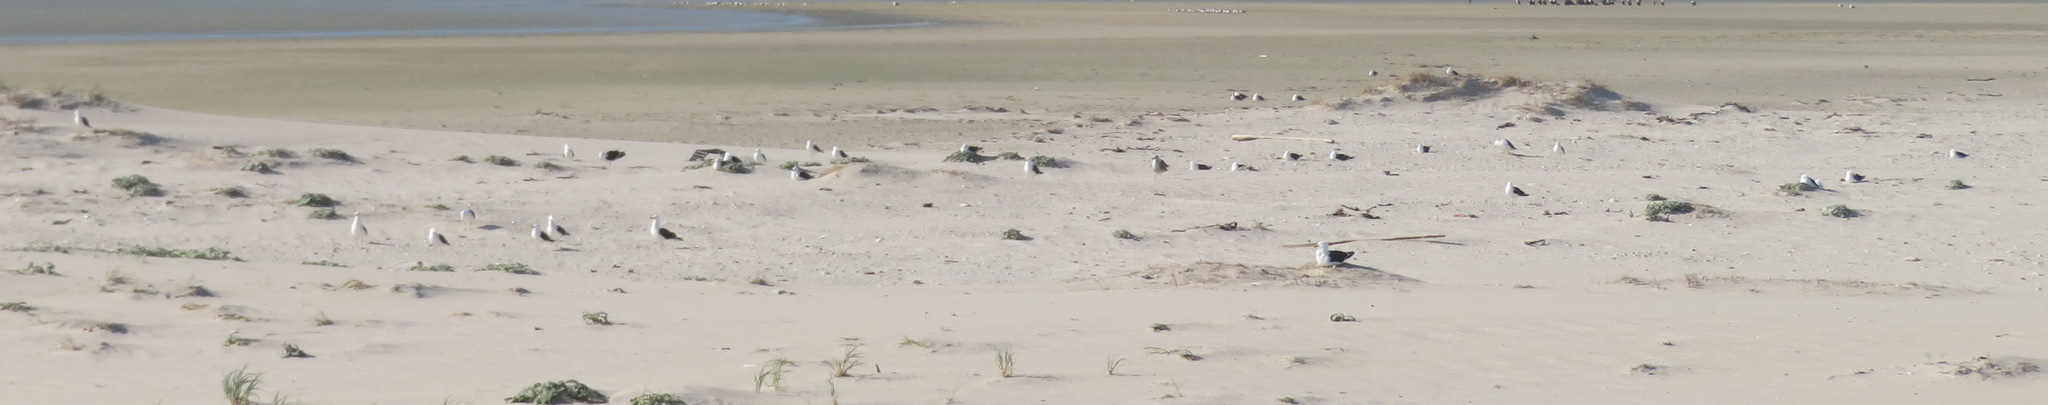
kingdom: Animalia
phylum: Chordata
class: Aves
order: Charadriiformes
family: Laridae
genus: Larus
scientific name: Larus dominicanus
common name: Kelp gull
